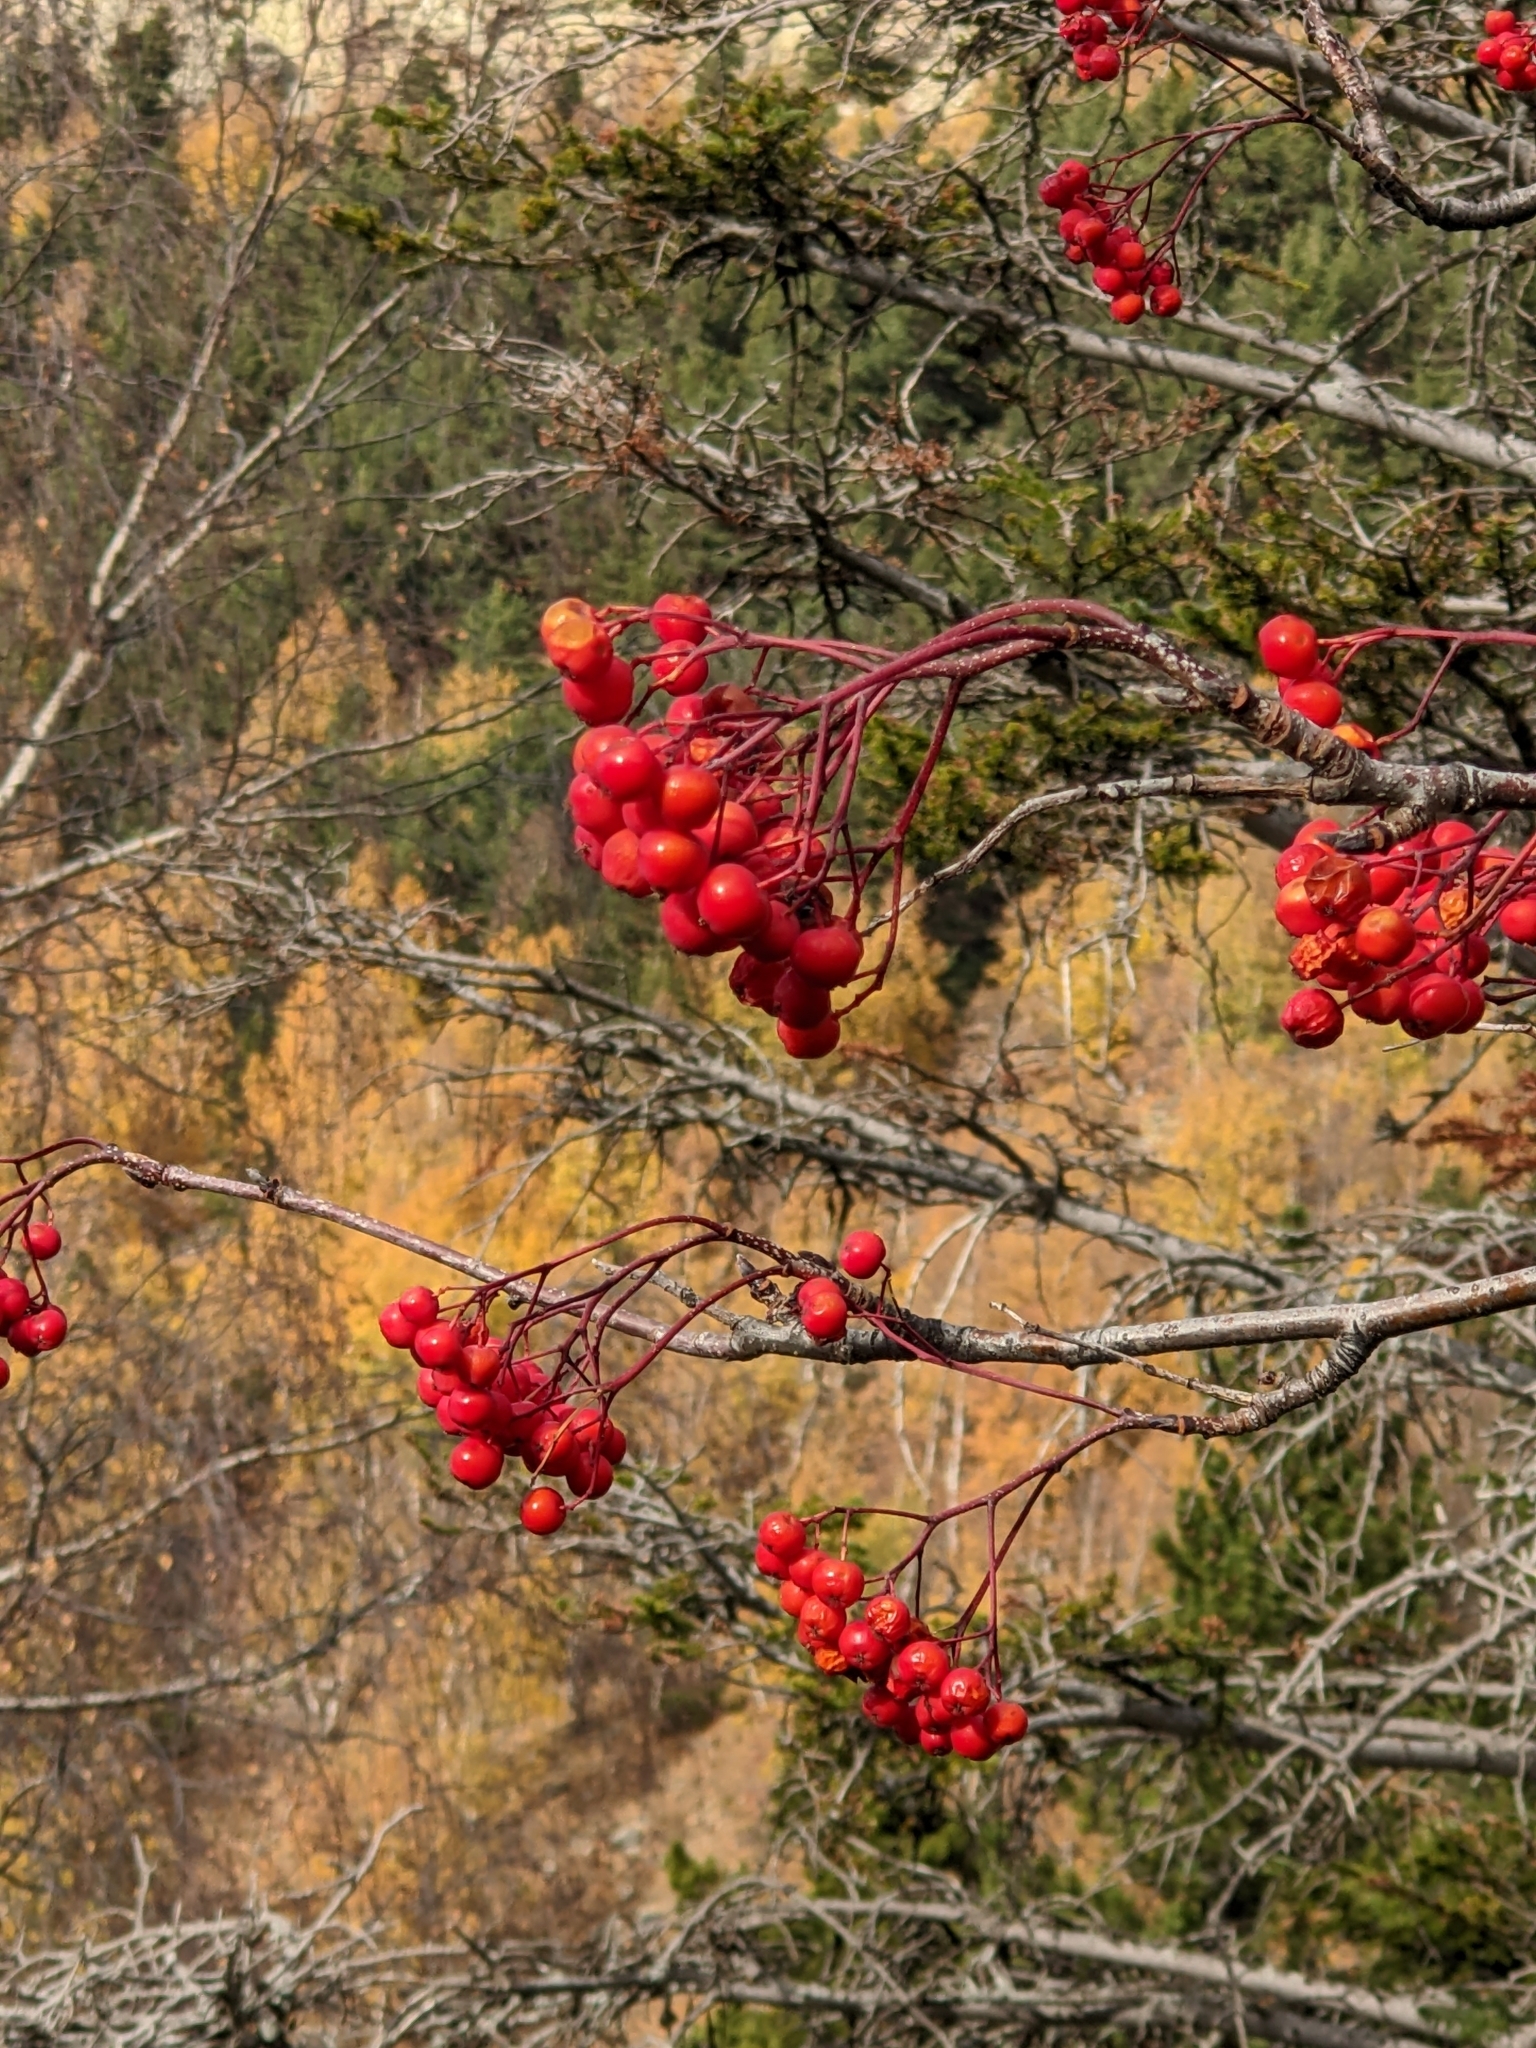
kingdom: Plantae
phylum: Tracheophyta
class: Magnoliopsida
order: Rosales
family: Rosaceae
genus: Sorbus
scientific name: Sorbus aucuparia
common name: Rowan
